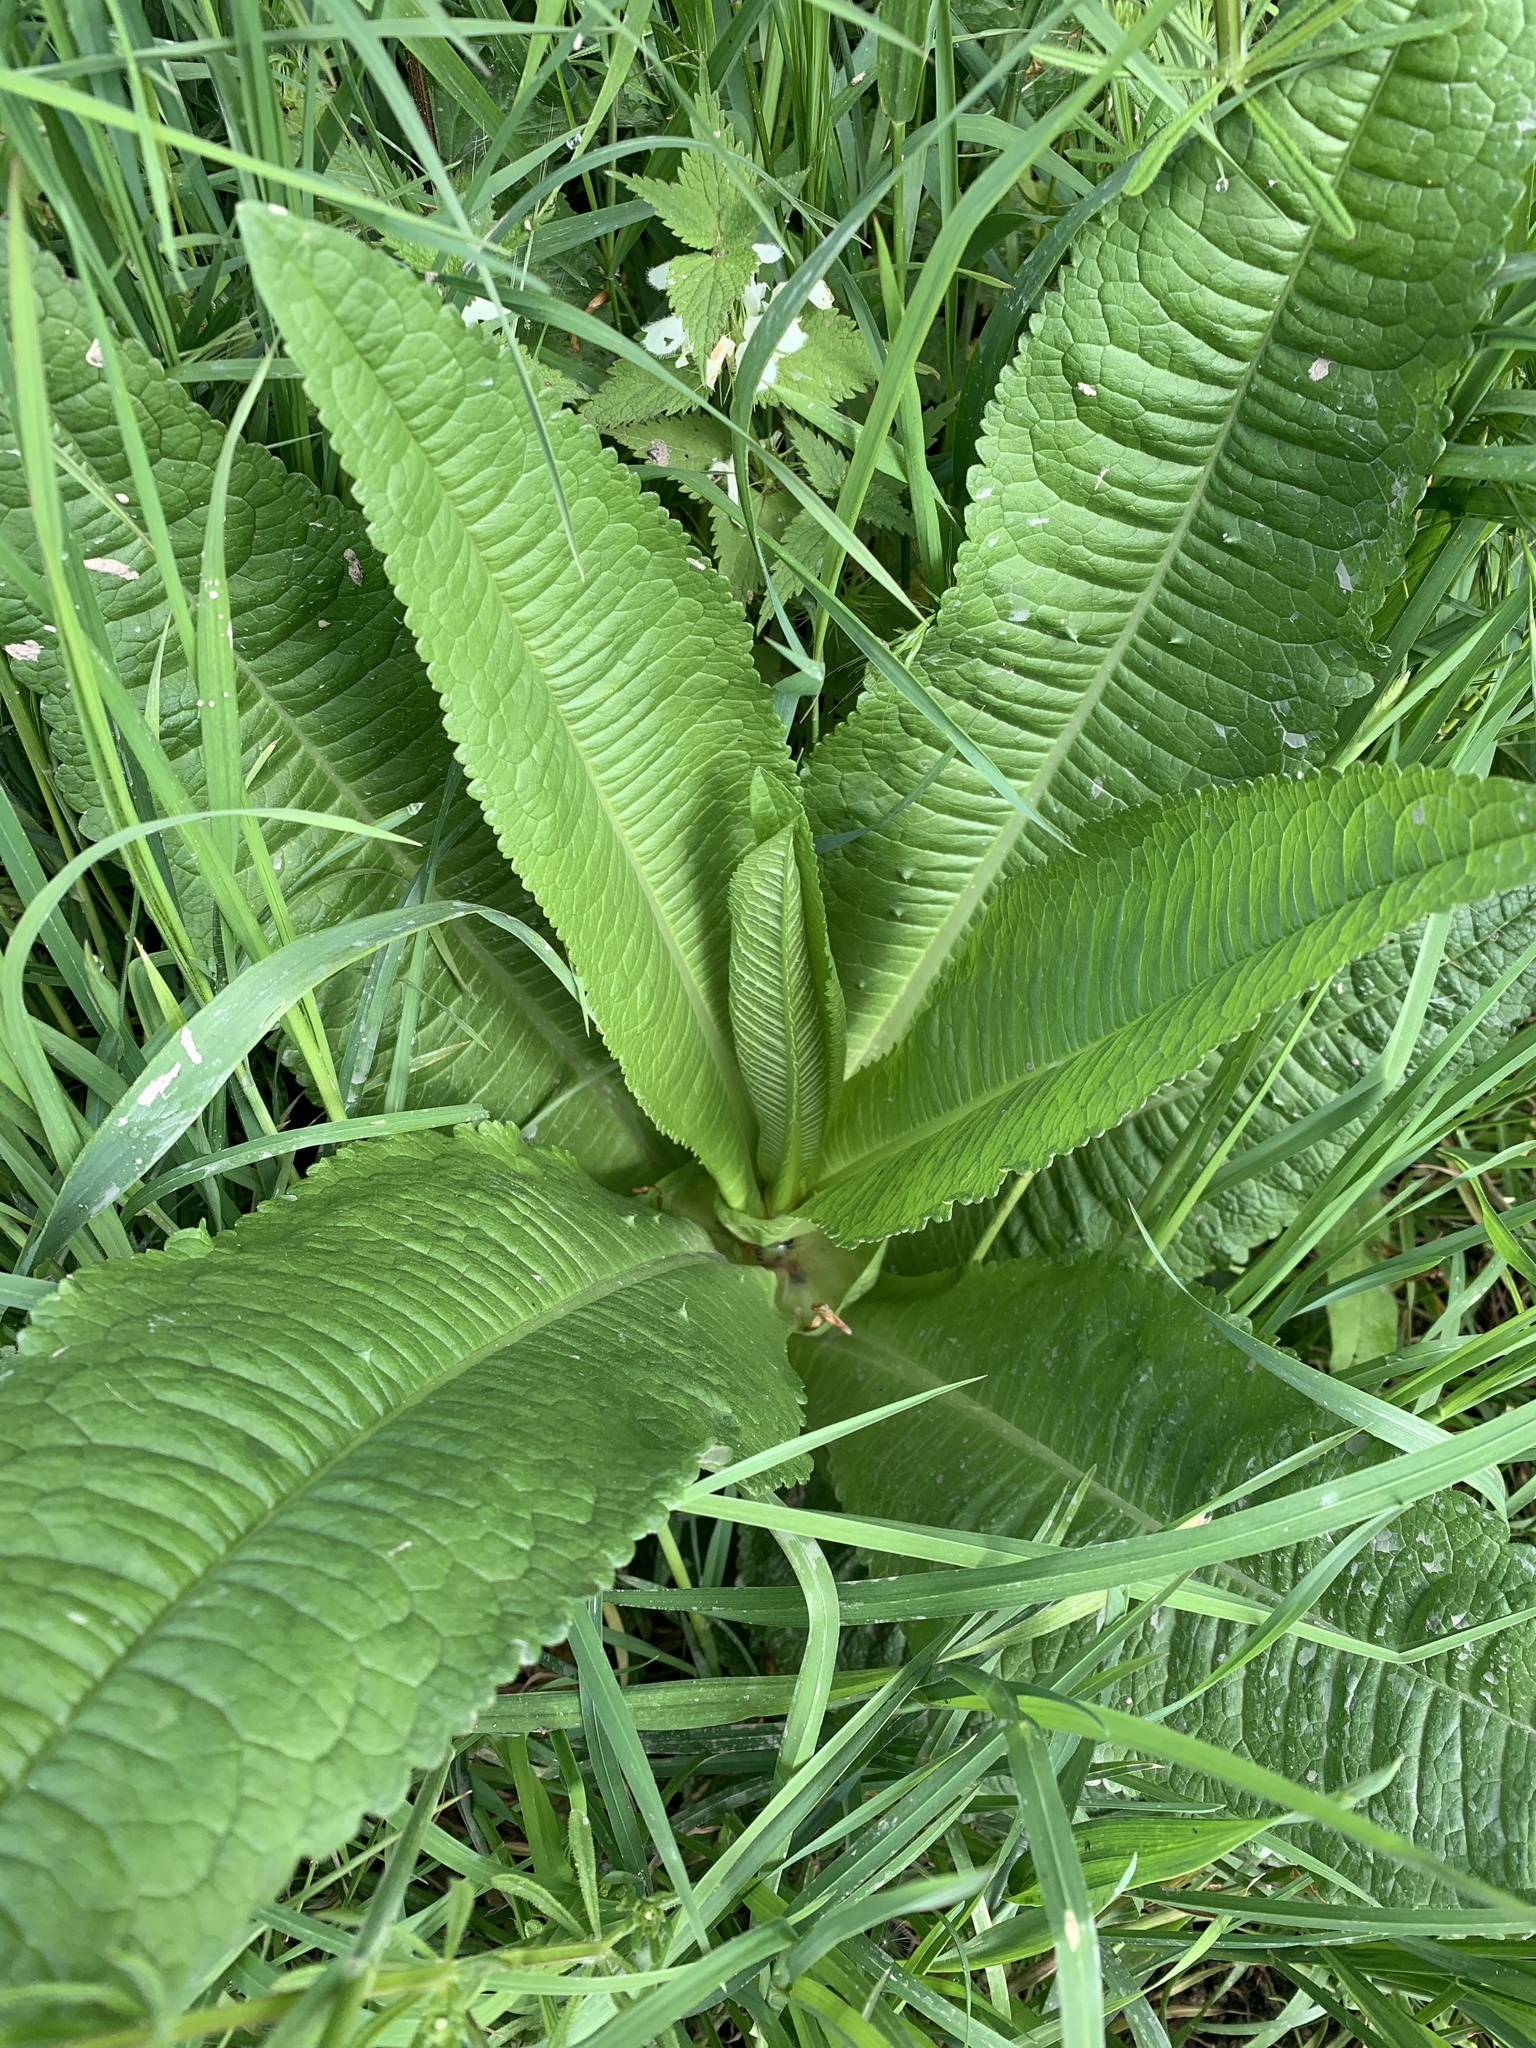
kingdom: Plantae
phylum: Tracheophyta
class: Magnoliopsida
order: Dipsacales
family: Caprifoliaceae
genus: Dipsacus
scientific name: Dipsacus fullonum
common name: Teasel
